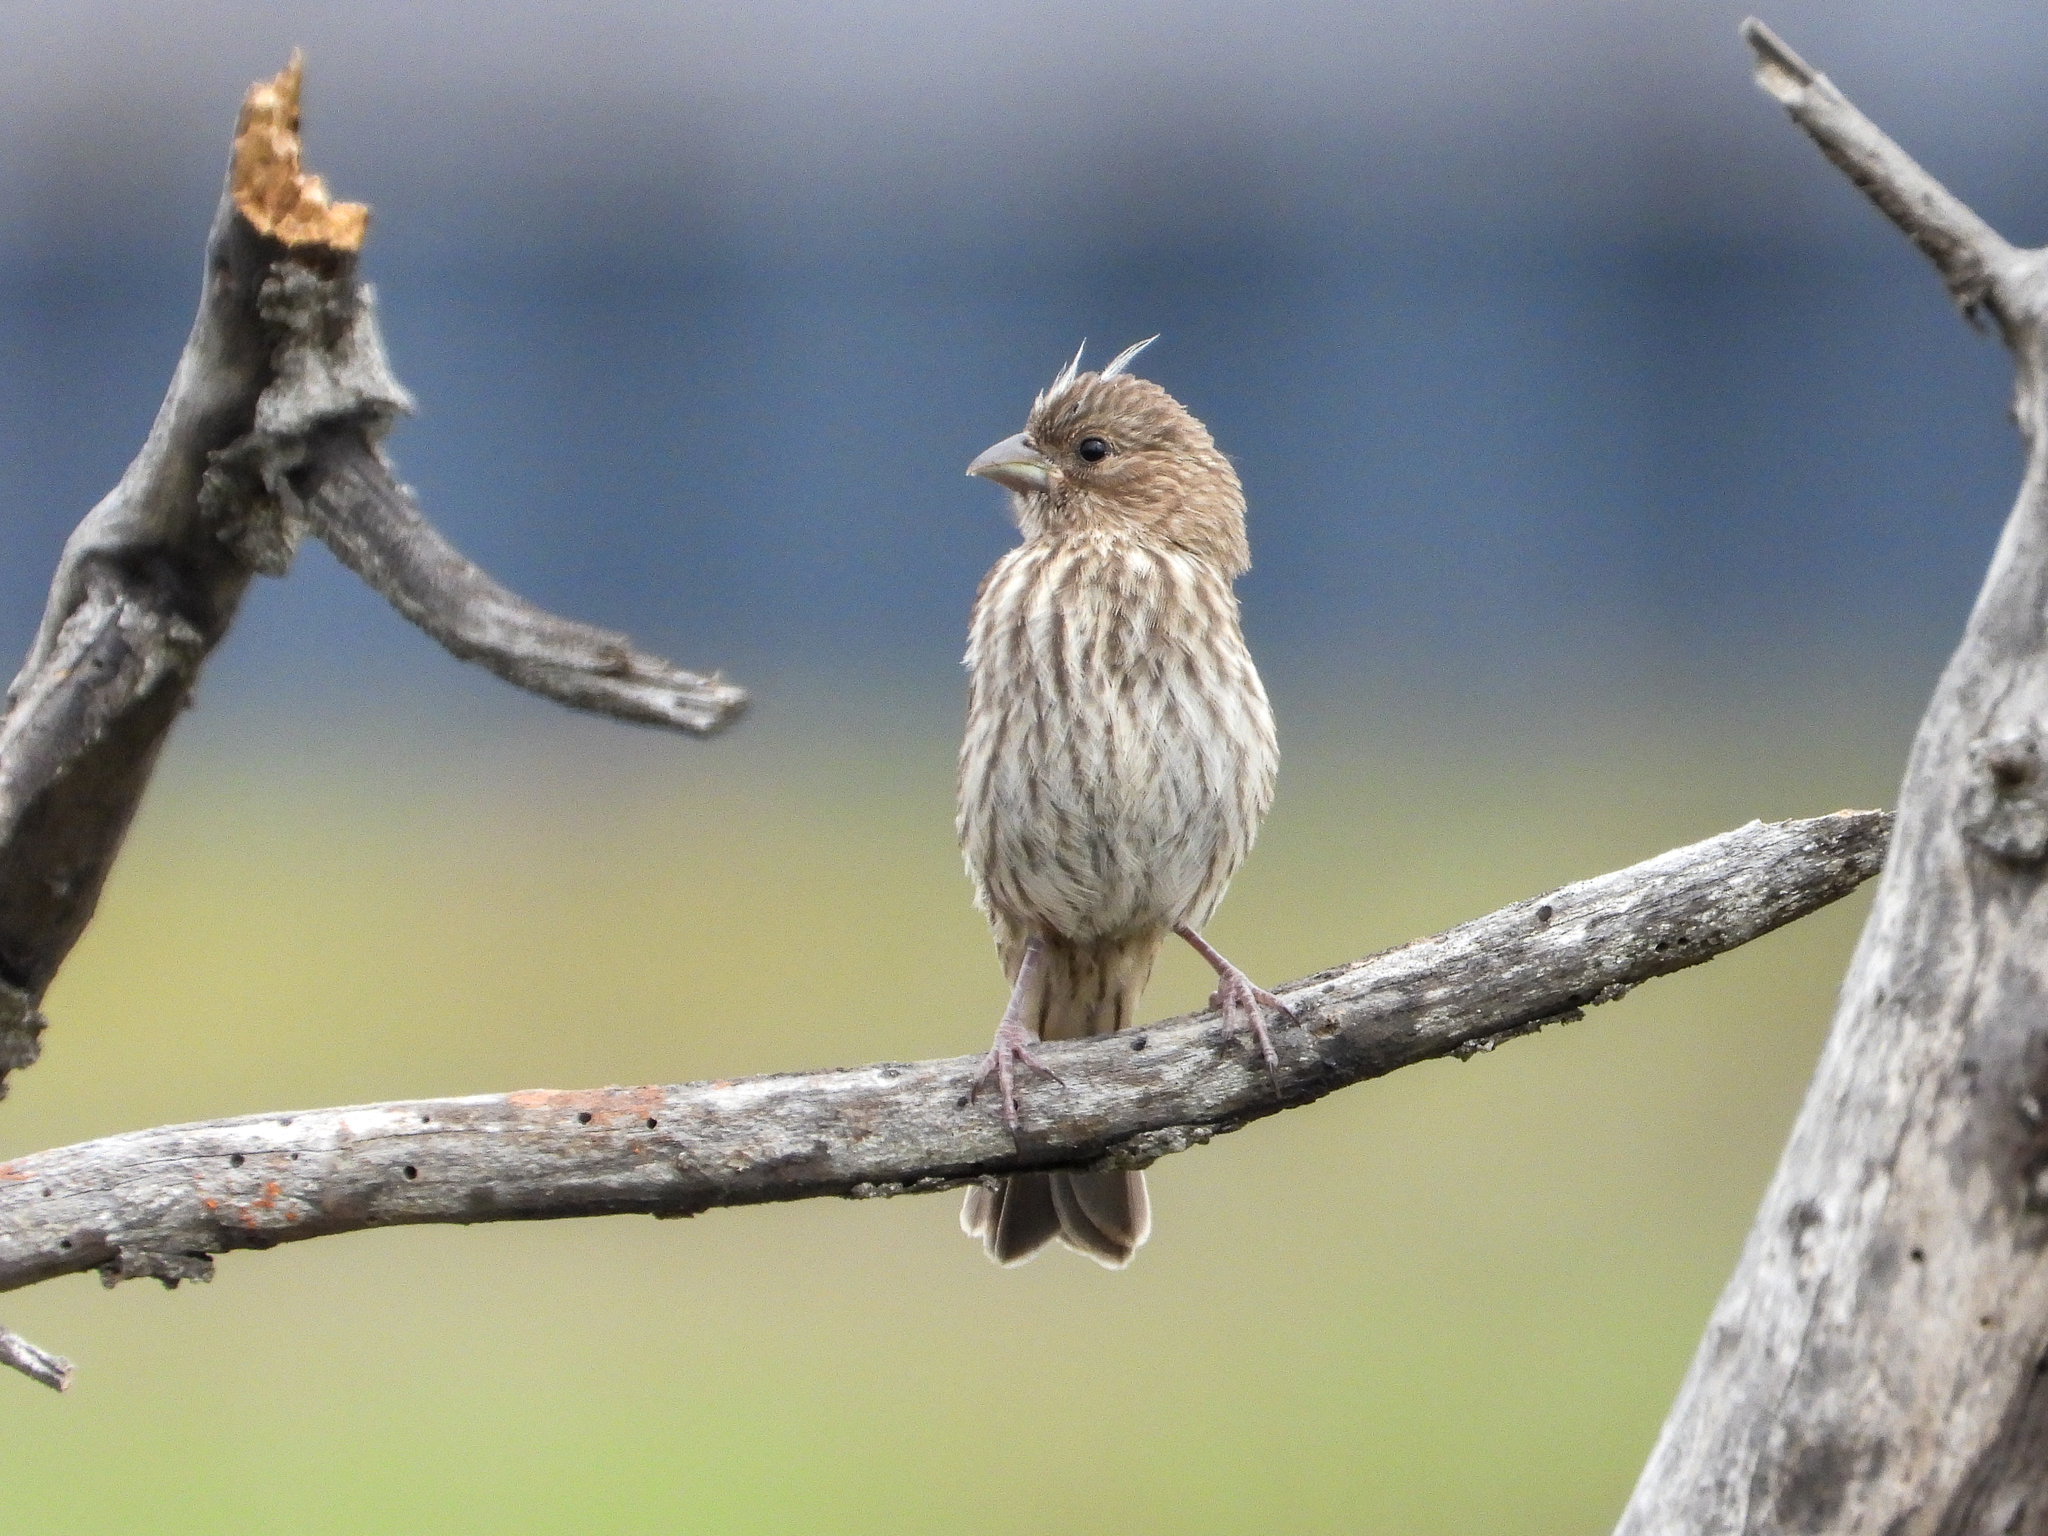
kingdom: Animalia
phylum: Chordata
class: Aves
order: Passeriformes
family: Fringillidae
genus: Haemorhous
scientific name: Haemorhous mexicanus
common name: House finch
